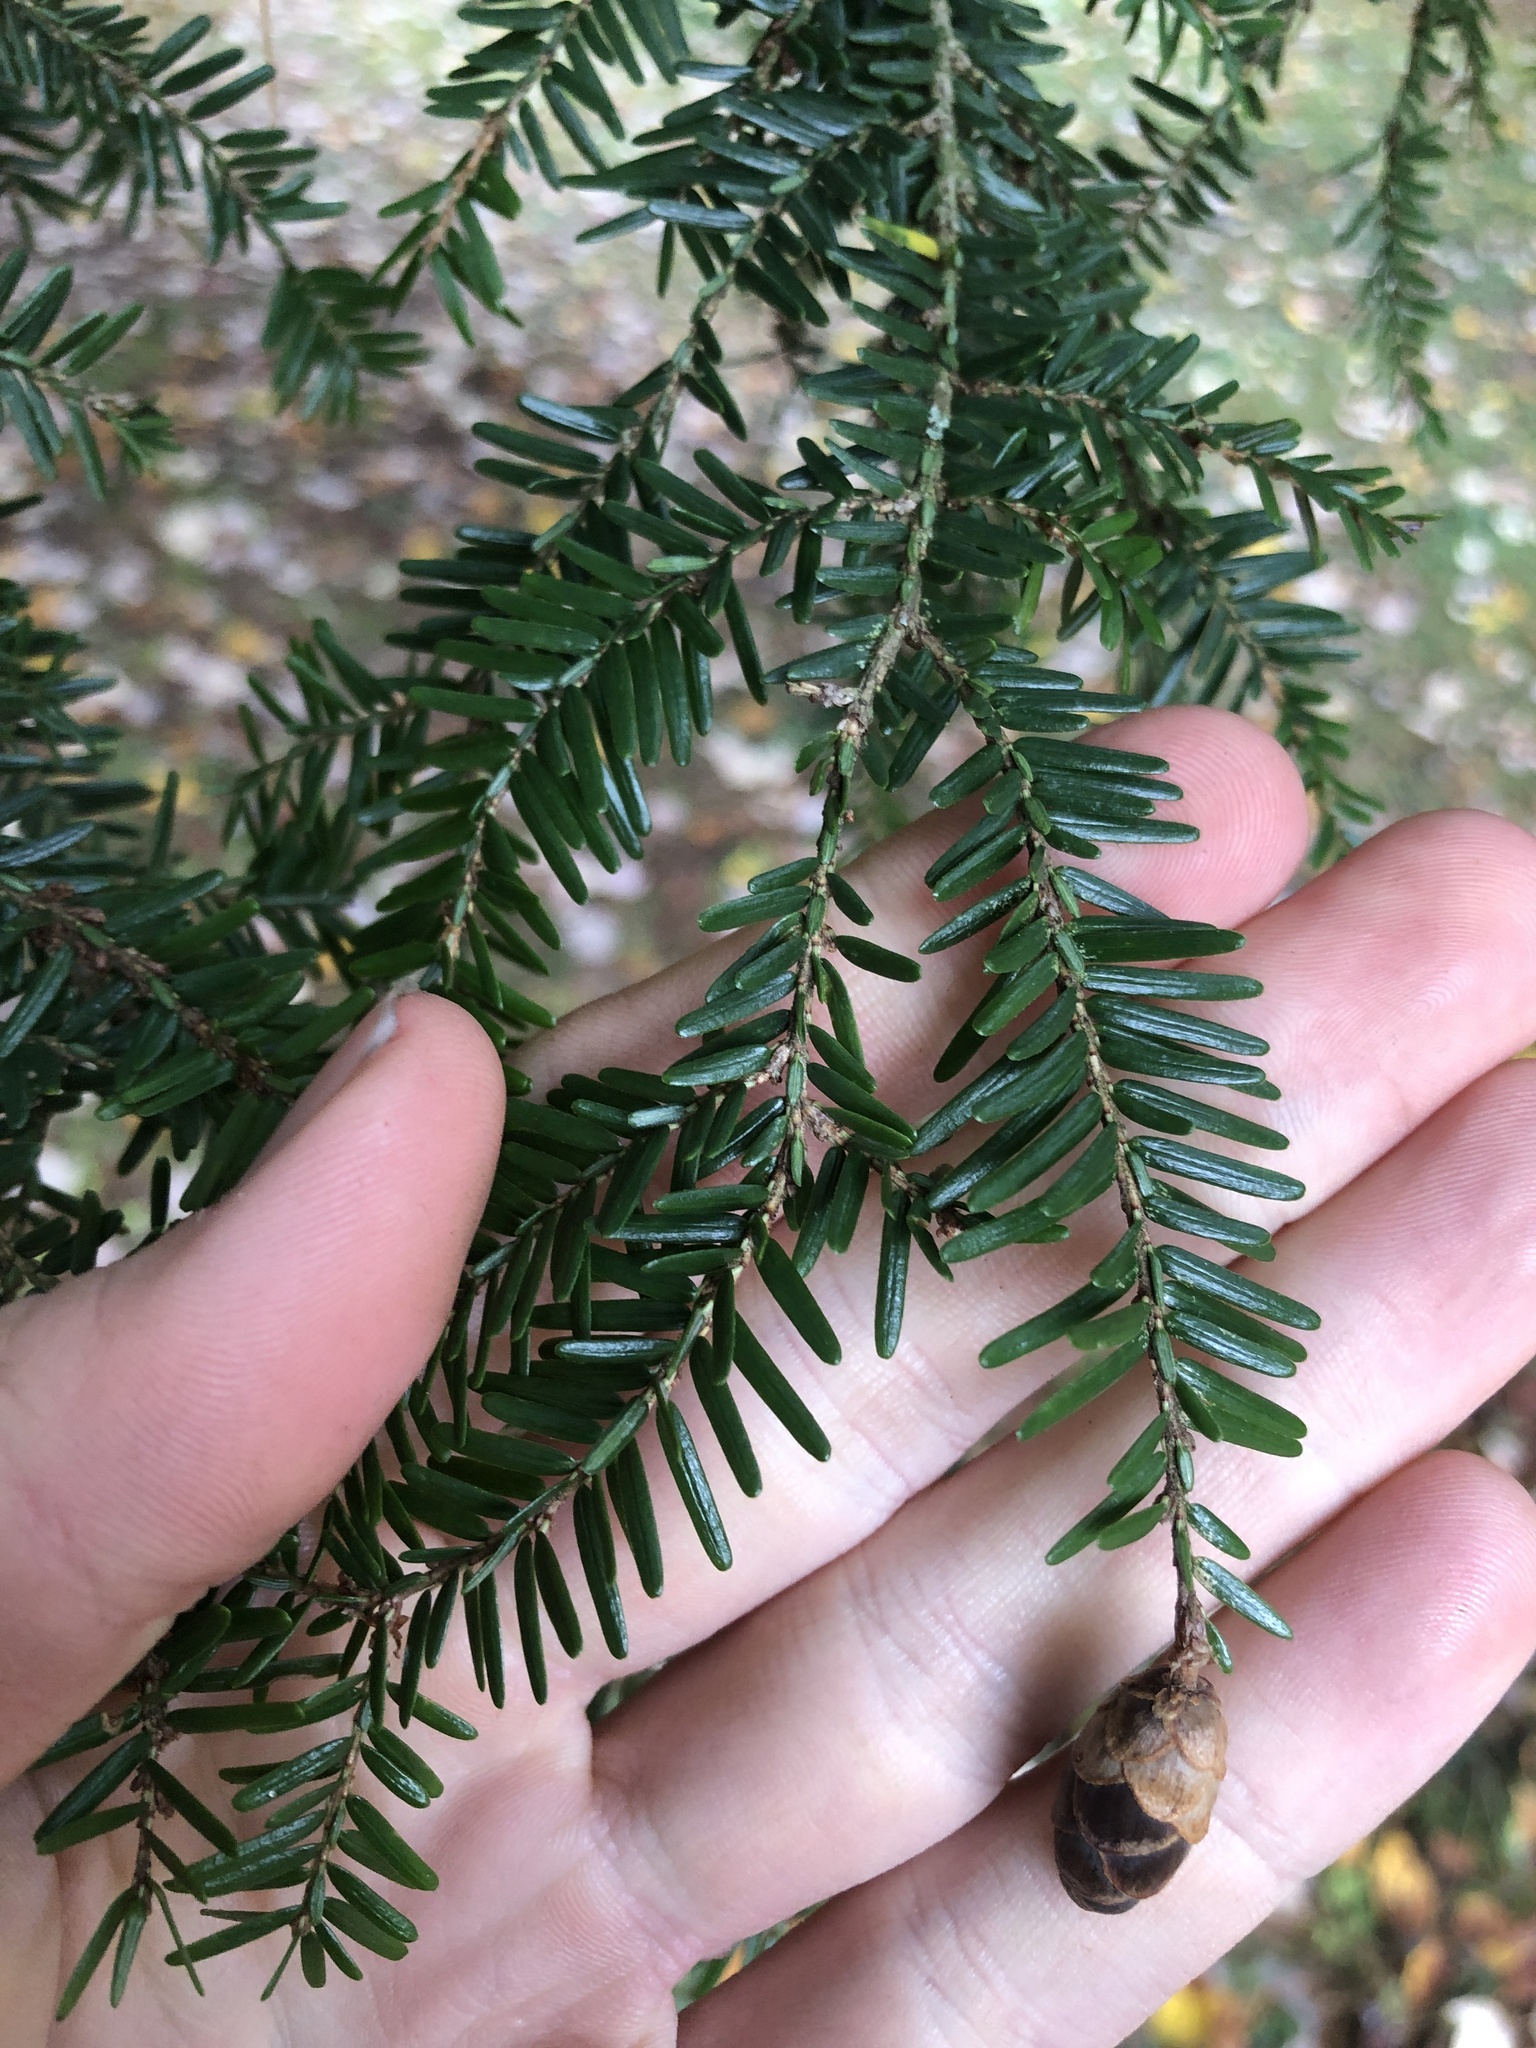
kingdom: Plantae
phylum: Tracheophyta
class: Pinopsida
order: Pinales
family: Pinaceae
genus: Tsuga
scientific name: Tsuga canadensis
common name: Eastern hemlock
